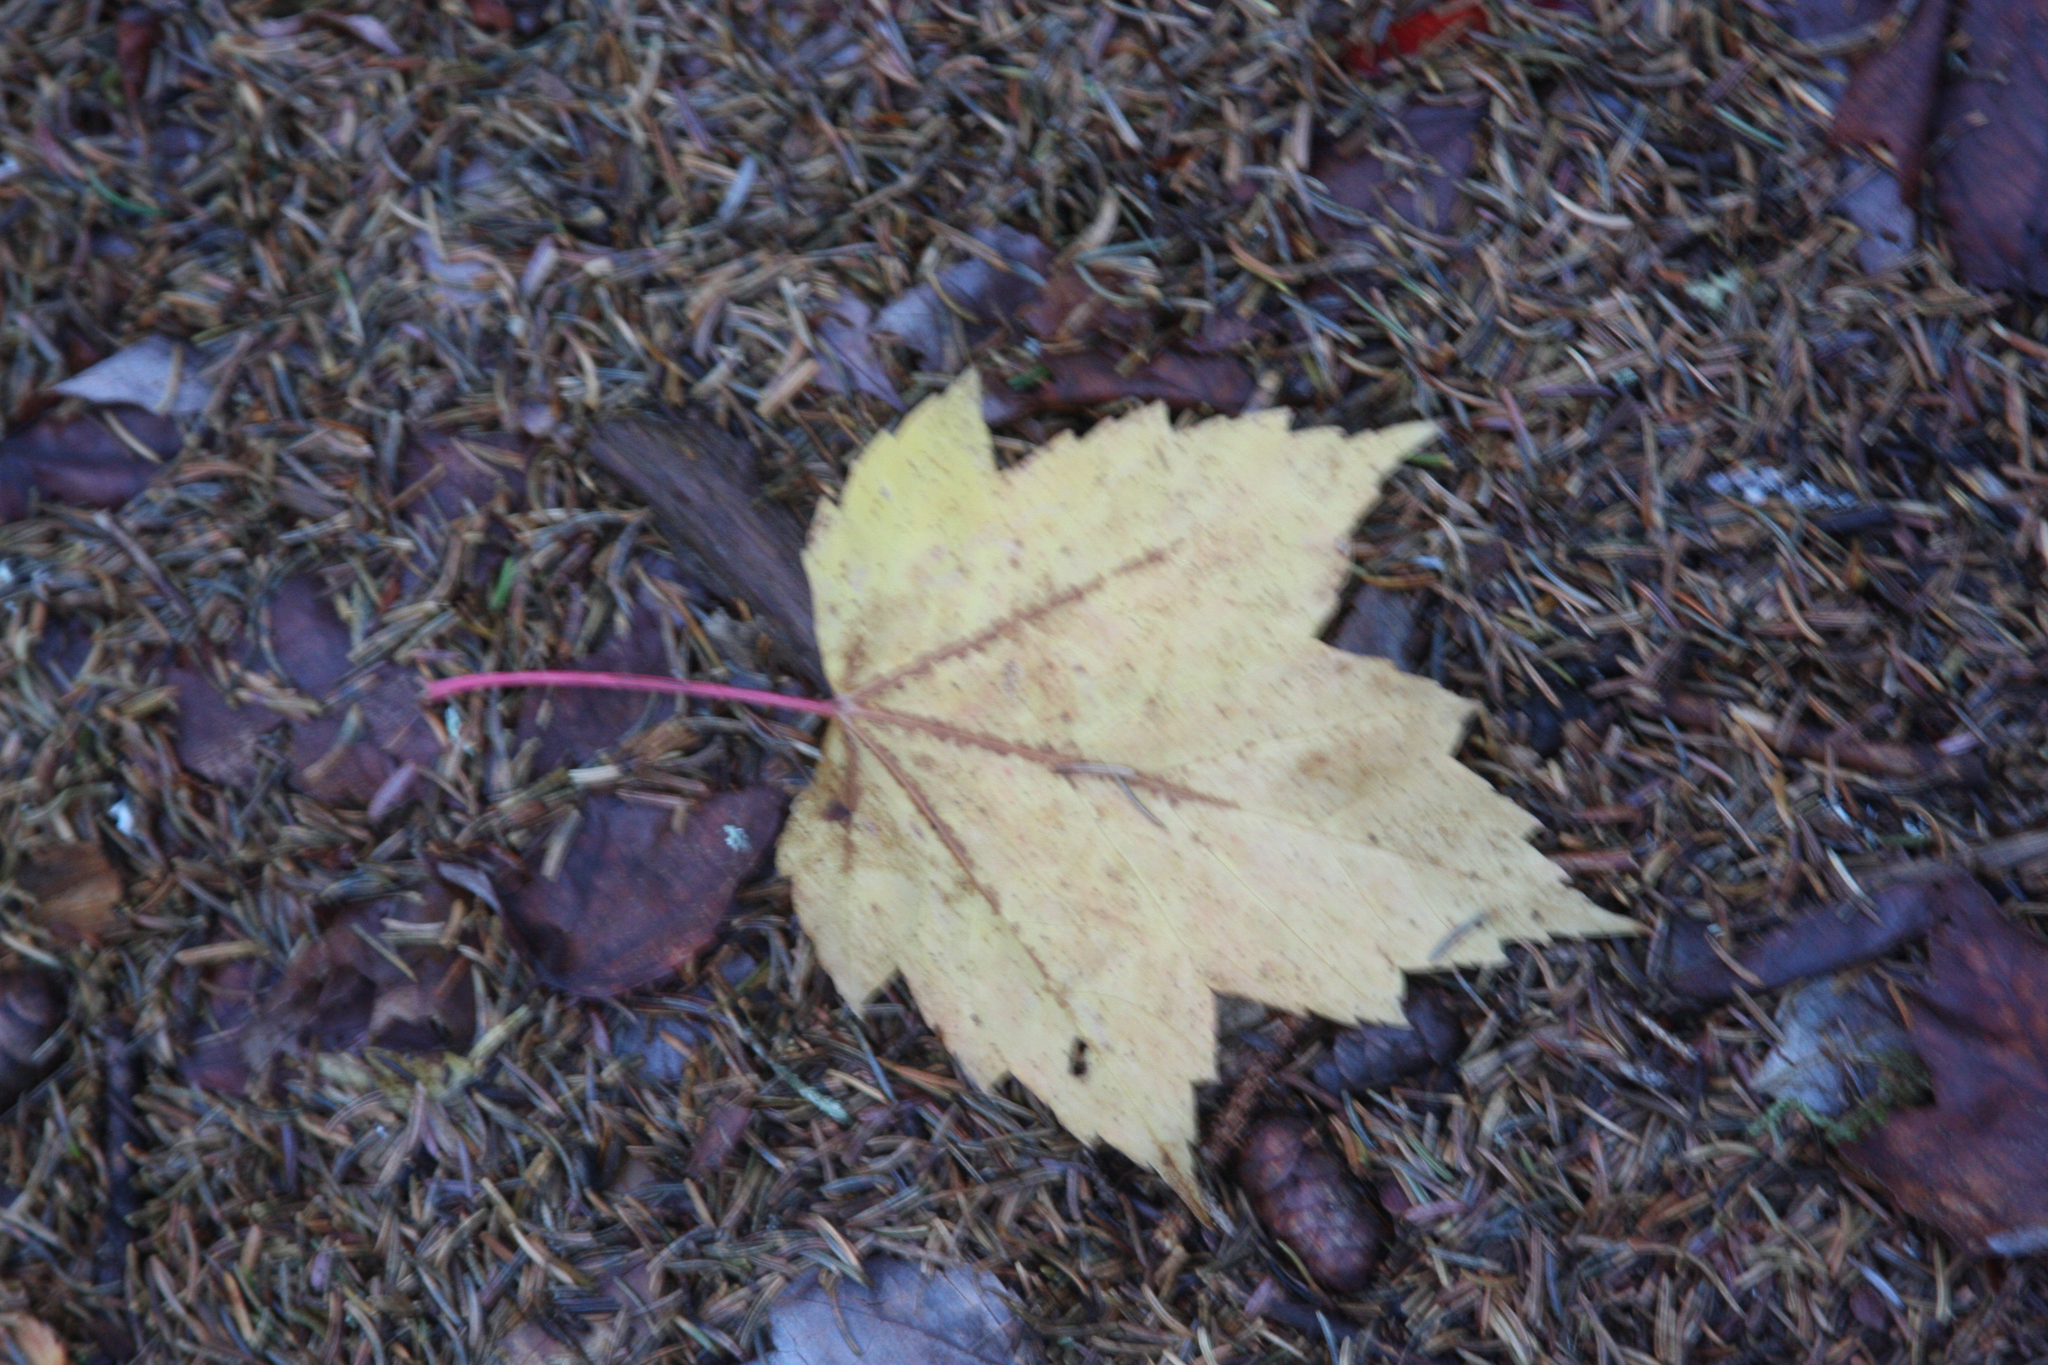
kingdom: Plantae
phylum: Tracheophyta
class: Magnoliopsida
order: Sapindales
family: Sapindaceae
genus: Acer
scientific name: Acer rubrum
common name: Red maple
